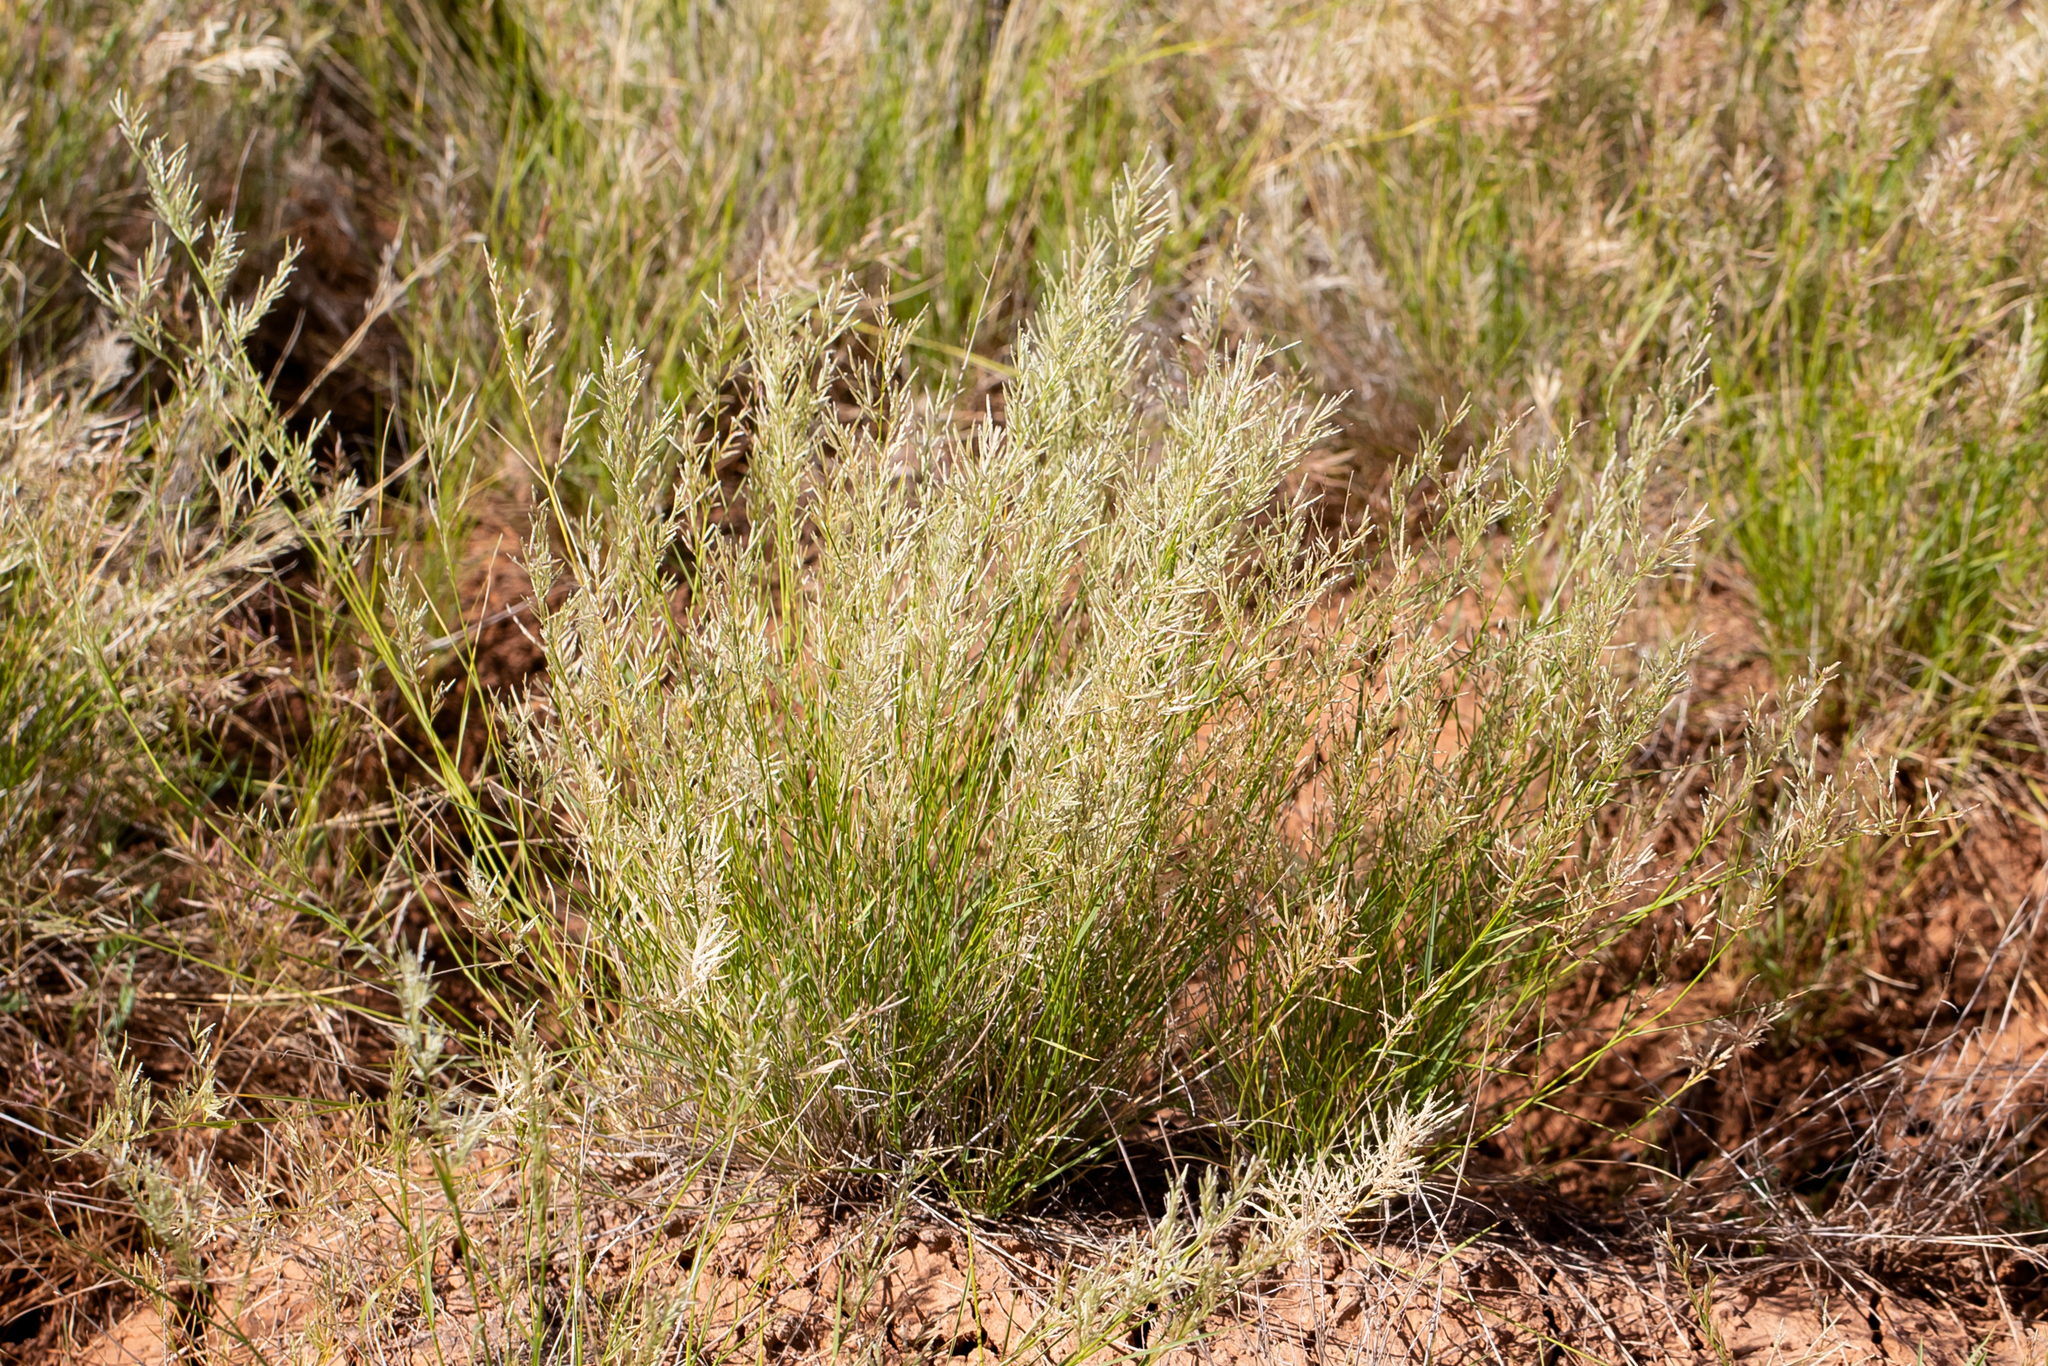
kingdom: Plantae
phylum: Tracheophyta
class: Liliopsida
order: Poales
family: Poaceae
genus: Eragrostis
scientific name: Eragrostis setifolia
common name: Bristleleaf lovegrass
